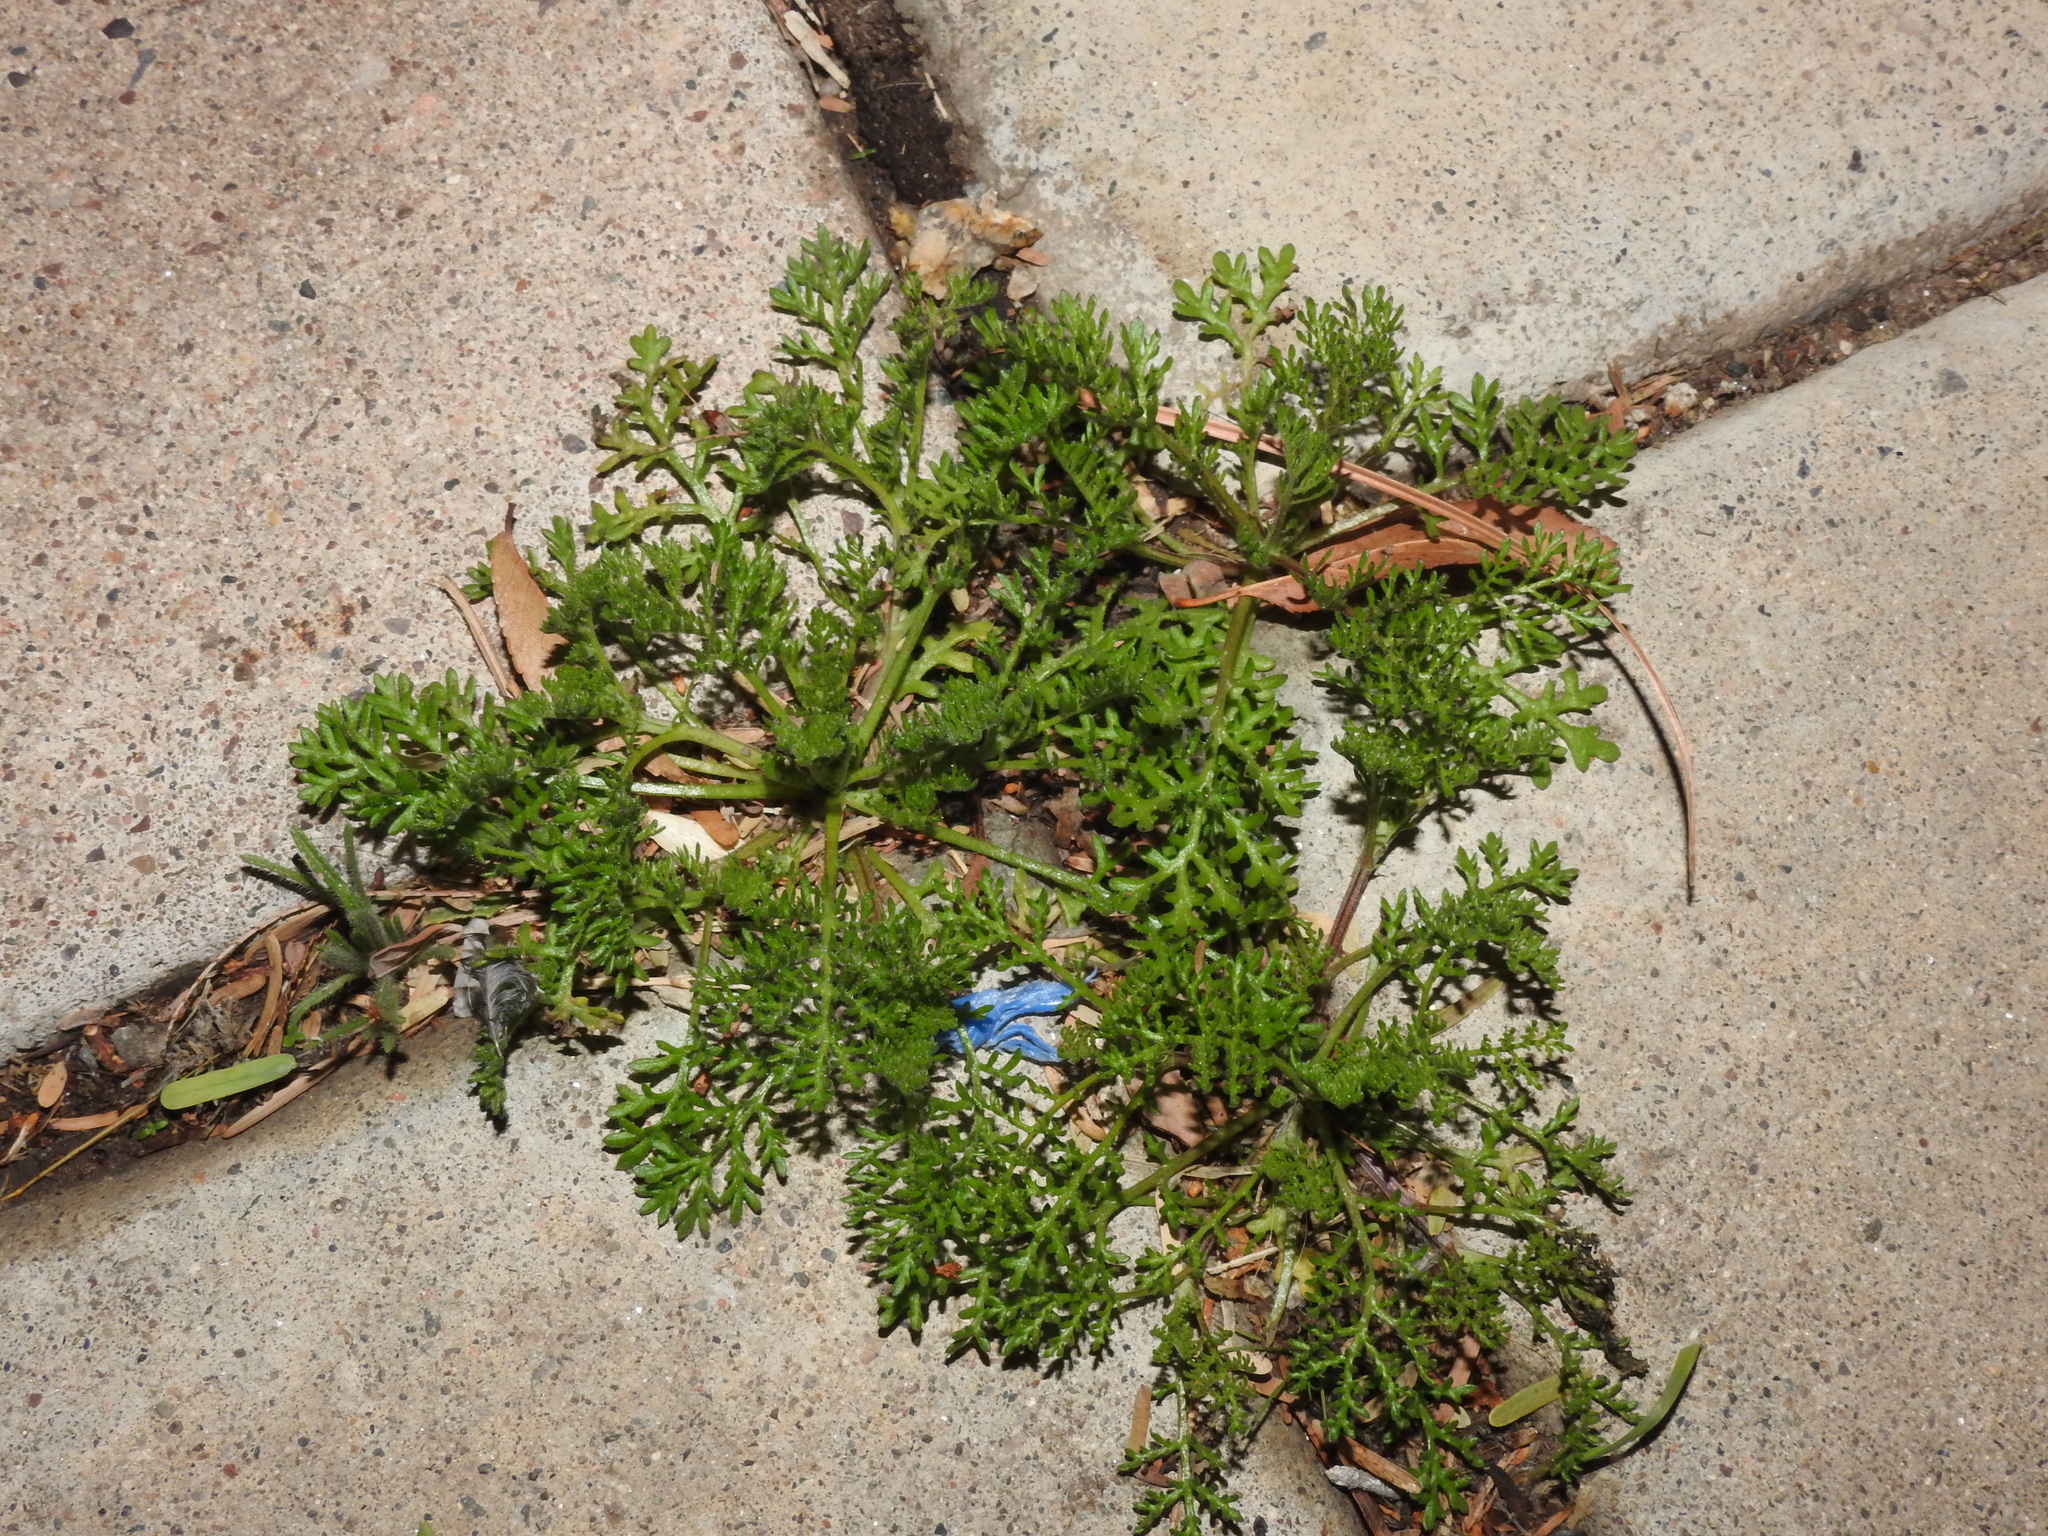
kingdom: Plantae
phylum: Tracheophyta
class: Magnoliopsida
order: Asterales
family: Asteraceae
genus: Oncosiphon
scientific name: Oncosiphon pilulifer
